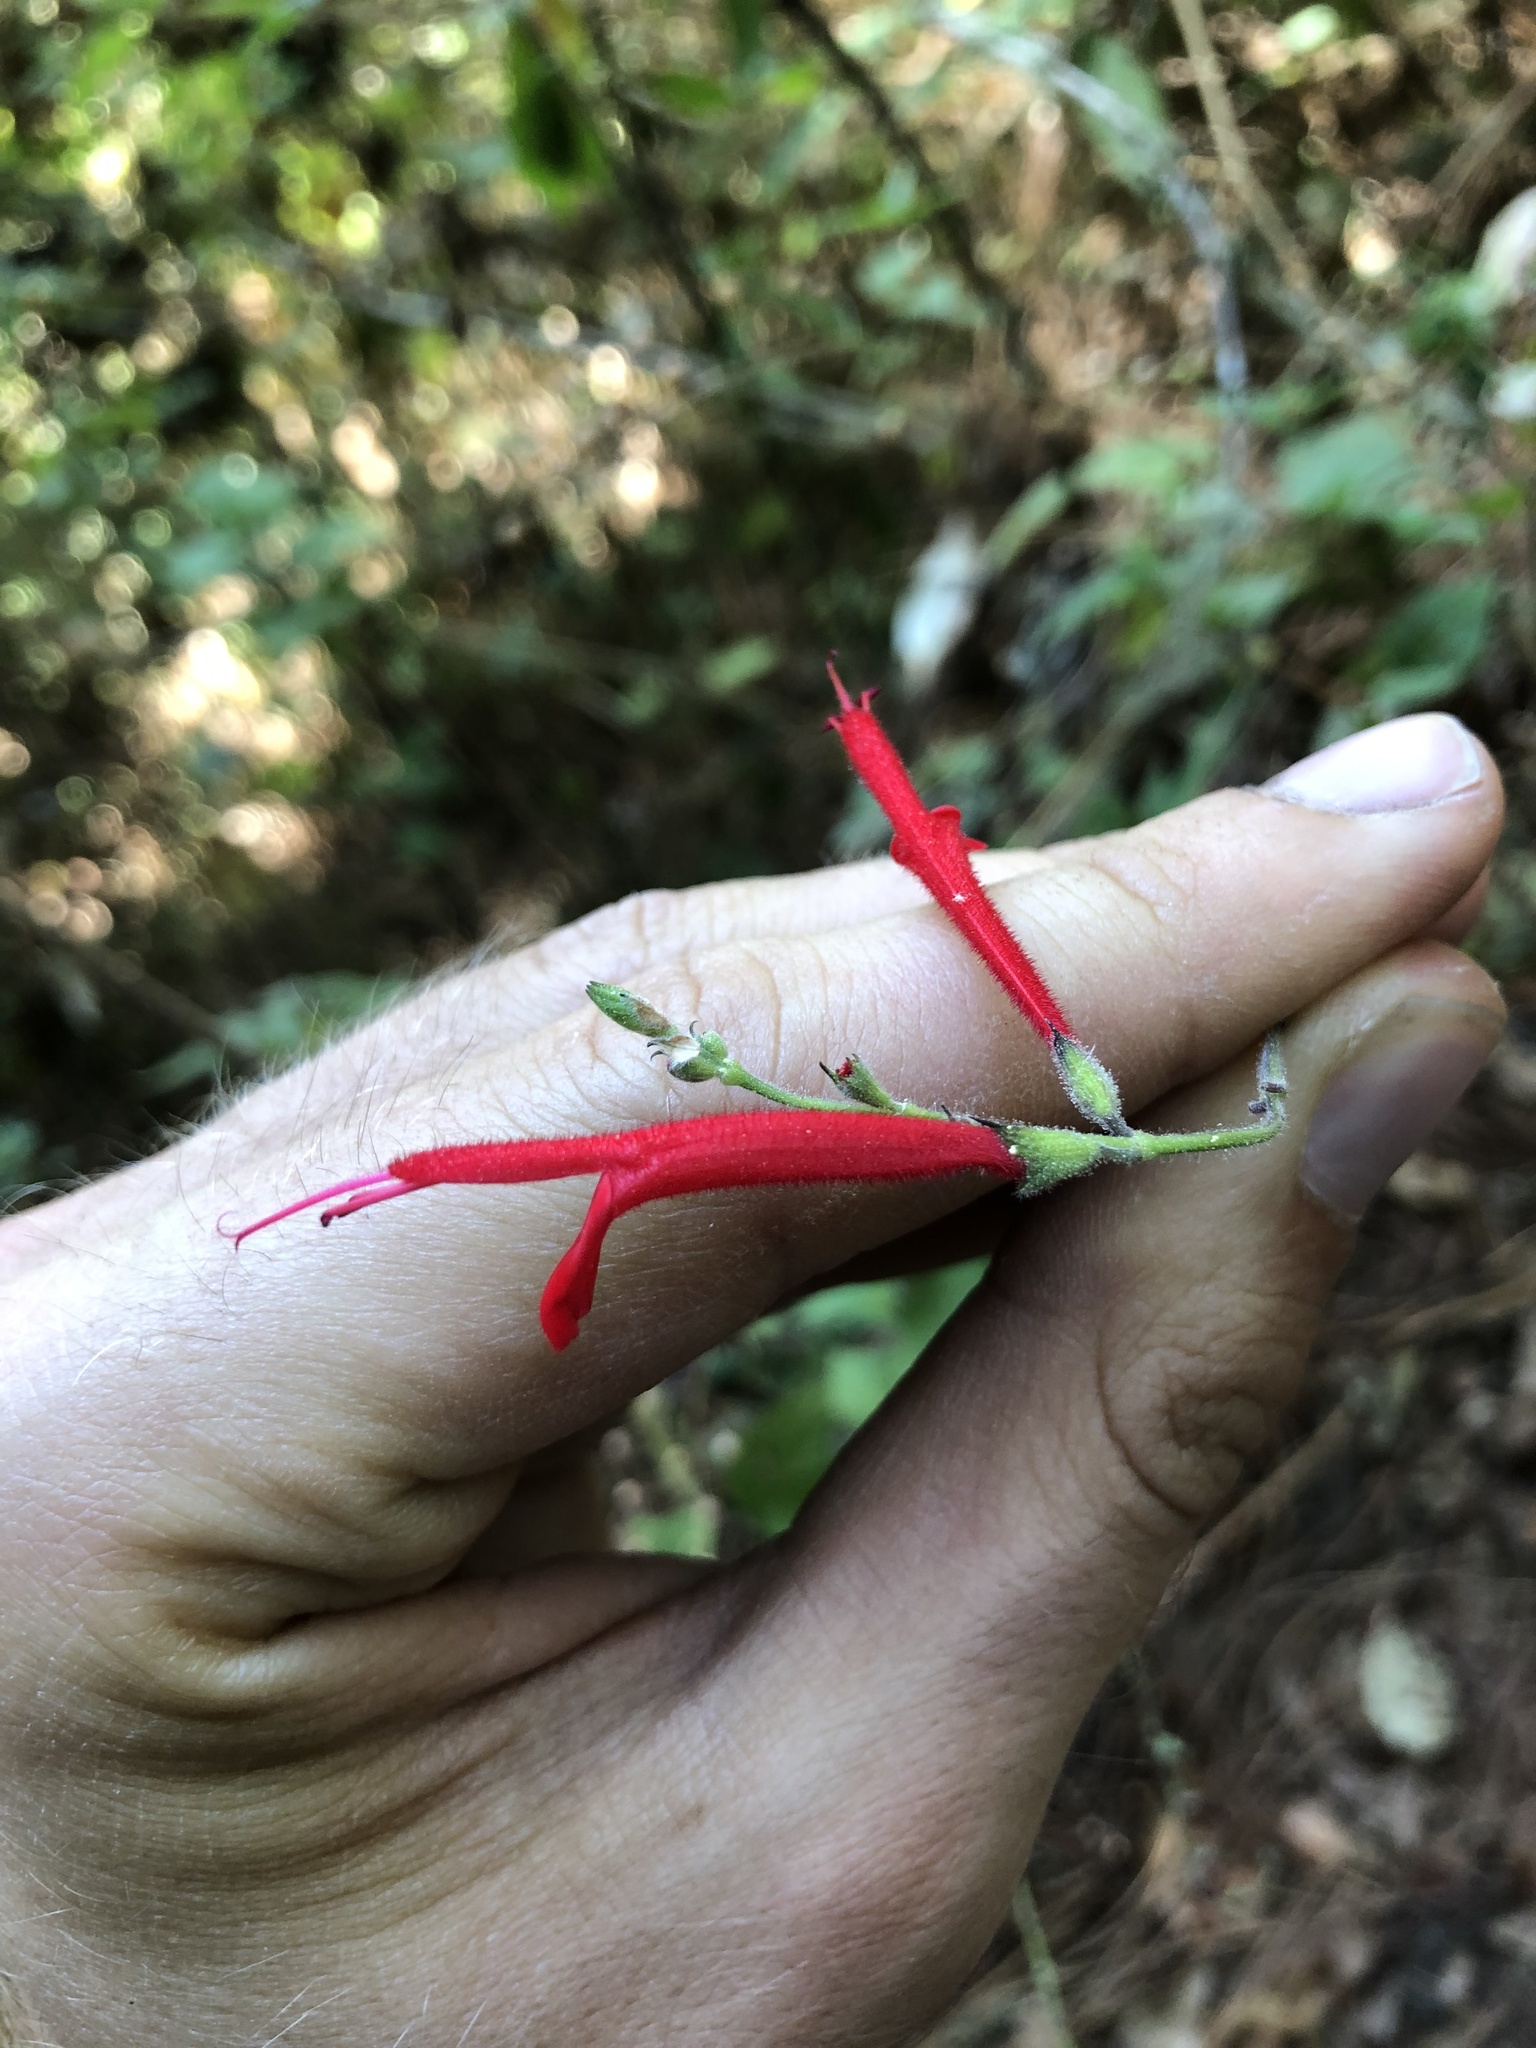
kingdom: Plantae
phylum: Tracheophyta
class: Magnoliopsida
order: Lamiales
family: Lamiaceae
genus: Salvia
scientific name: Salvia cinnabarina
